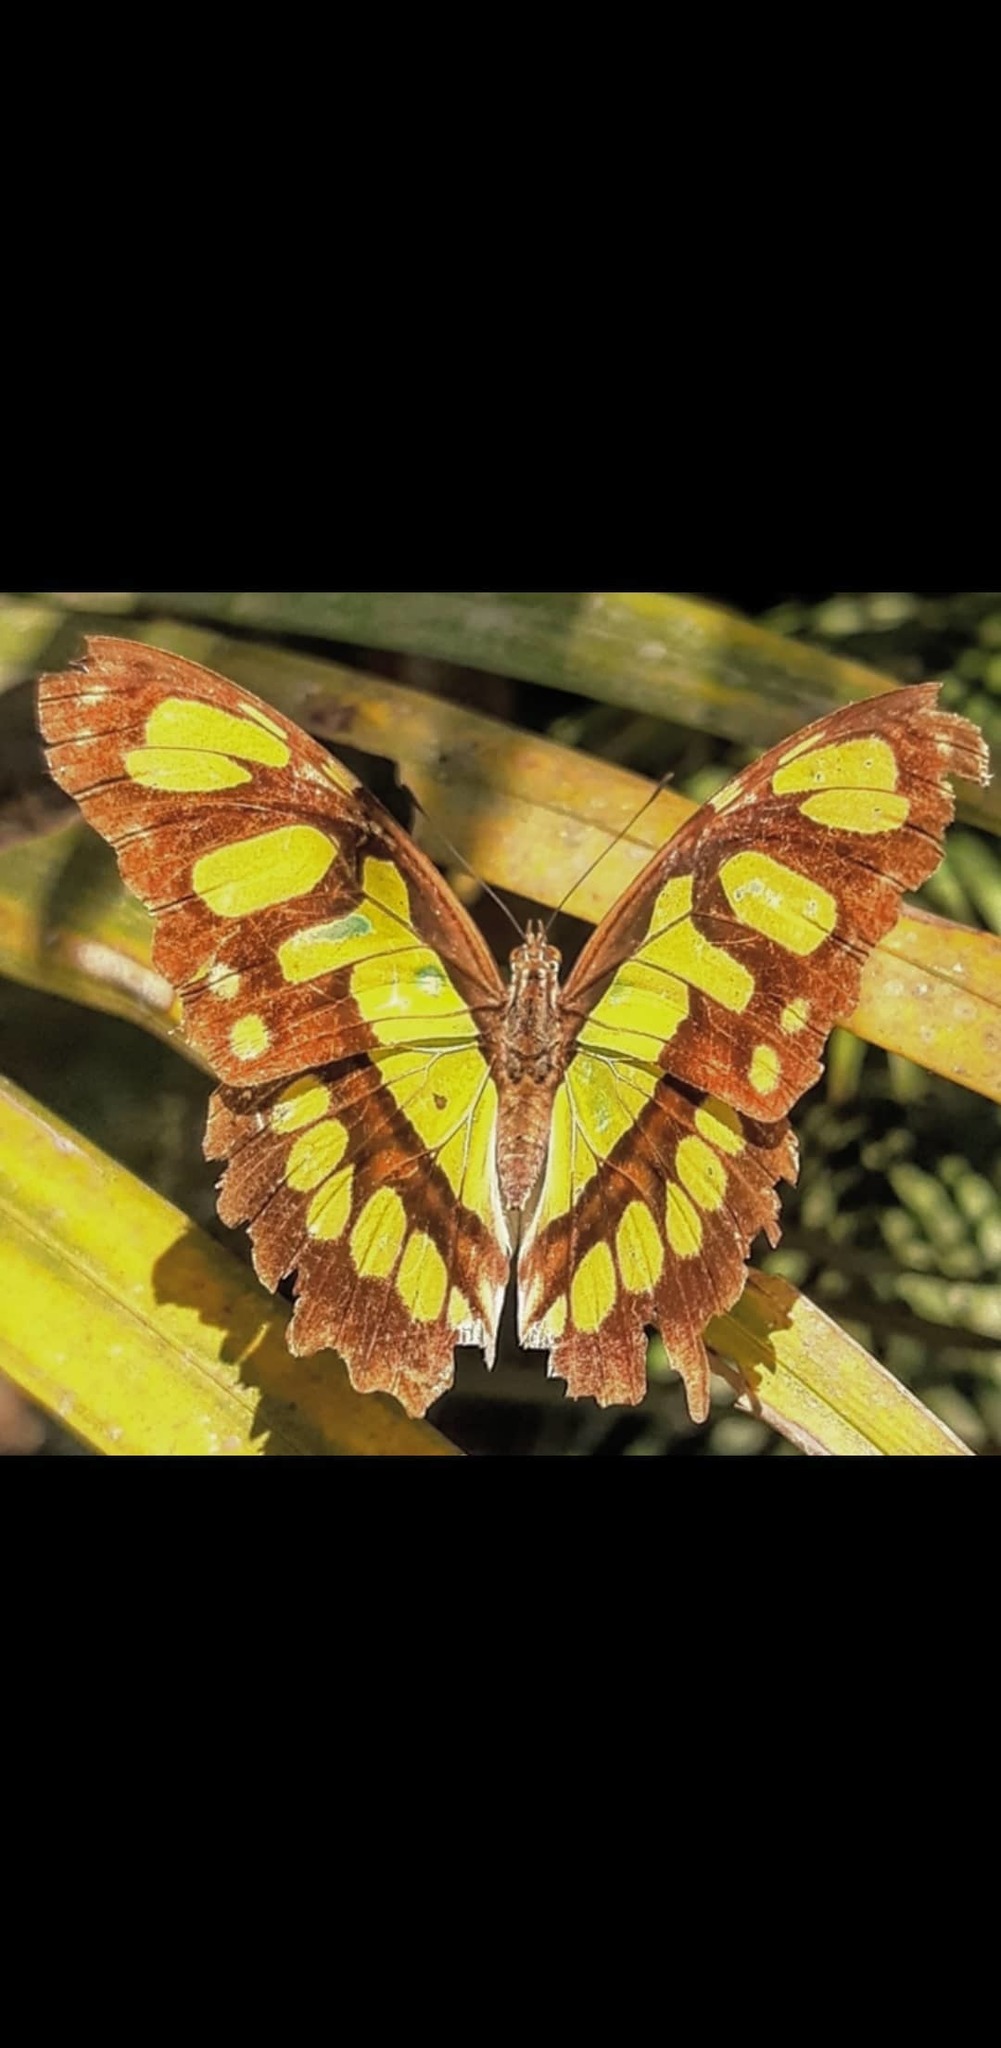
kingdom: Animalia
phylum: Arthropoda
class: Insecta
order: Lepidoptera
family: Nymphalidae
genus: Siproeta
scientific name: Siproeta stelenes
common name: Malachite
